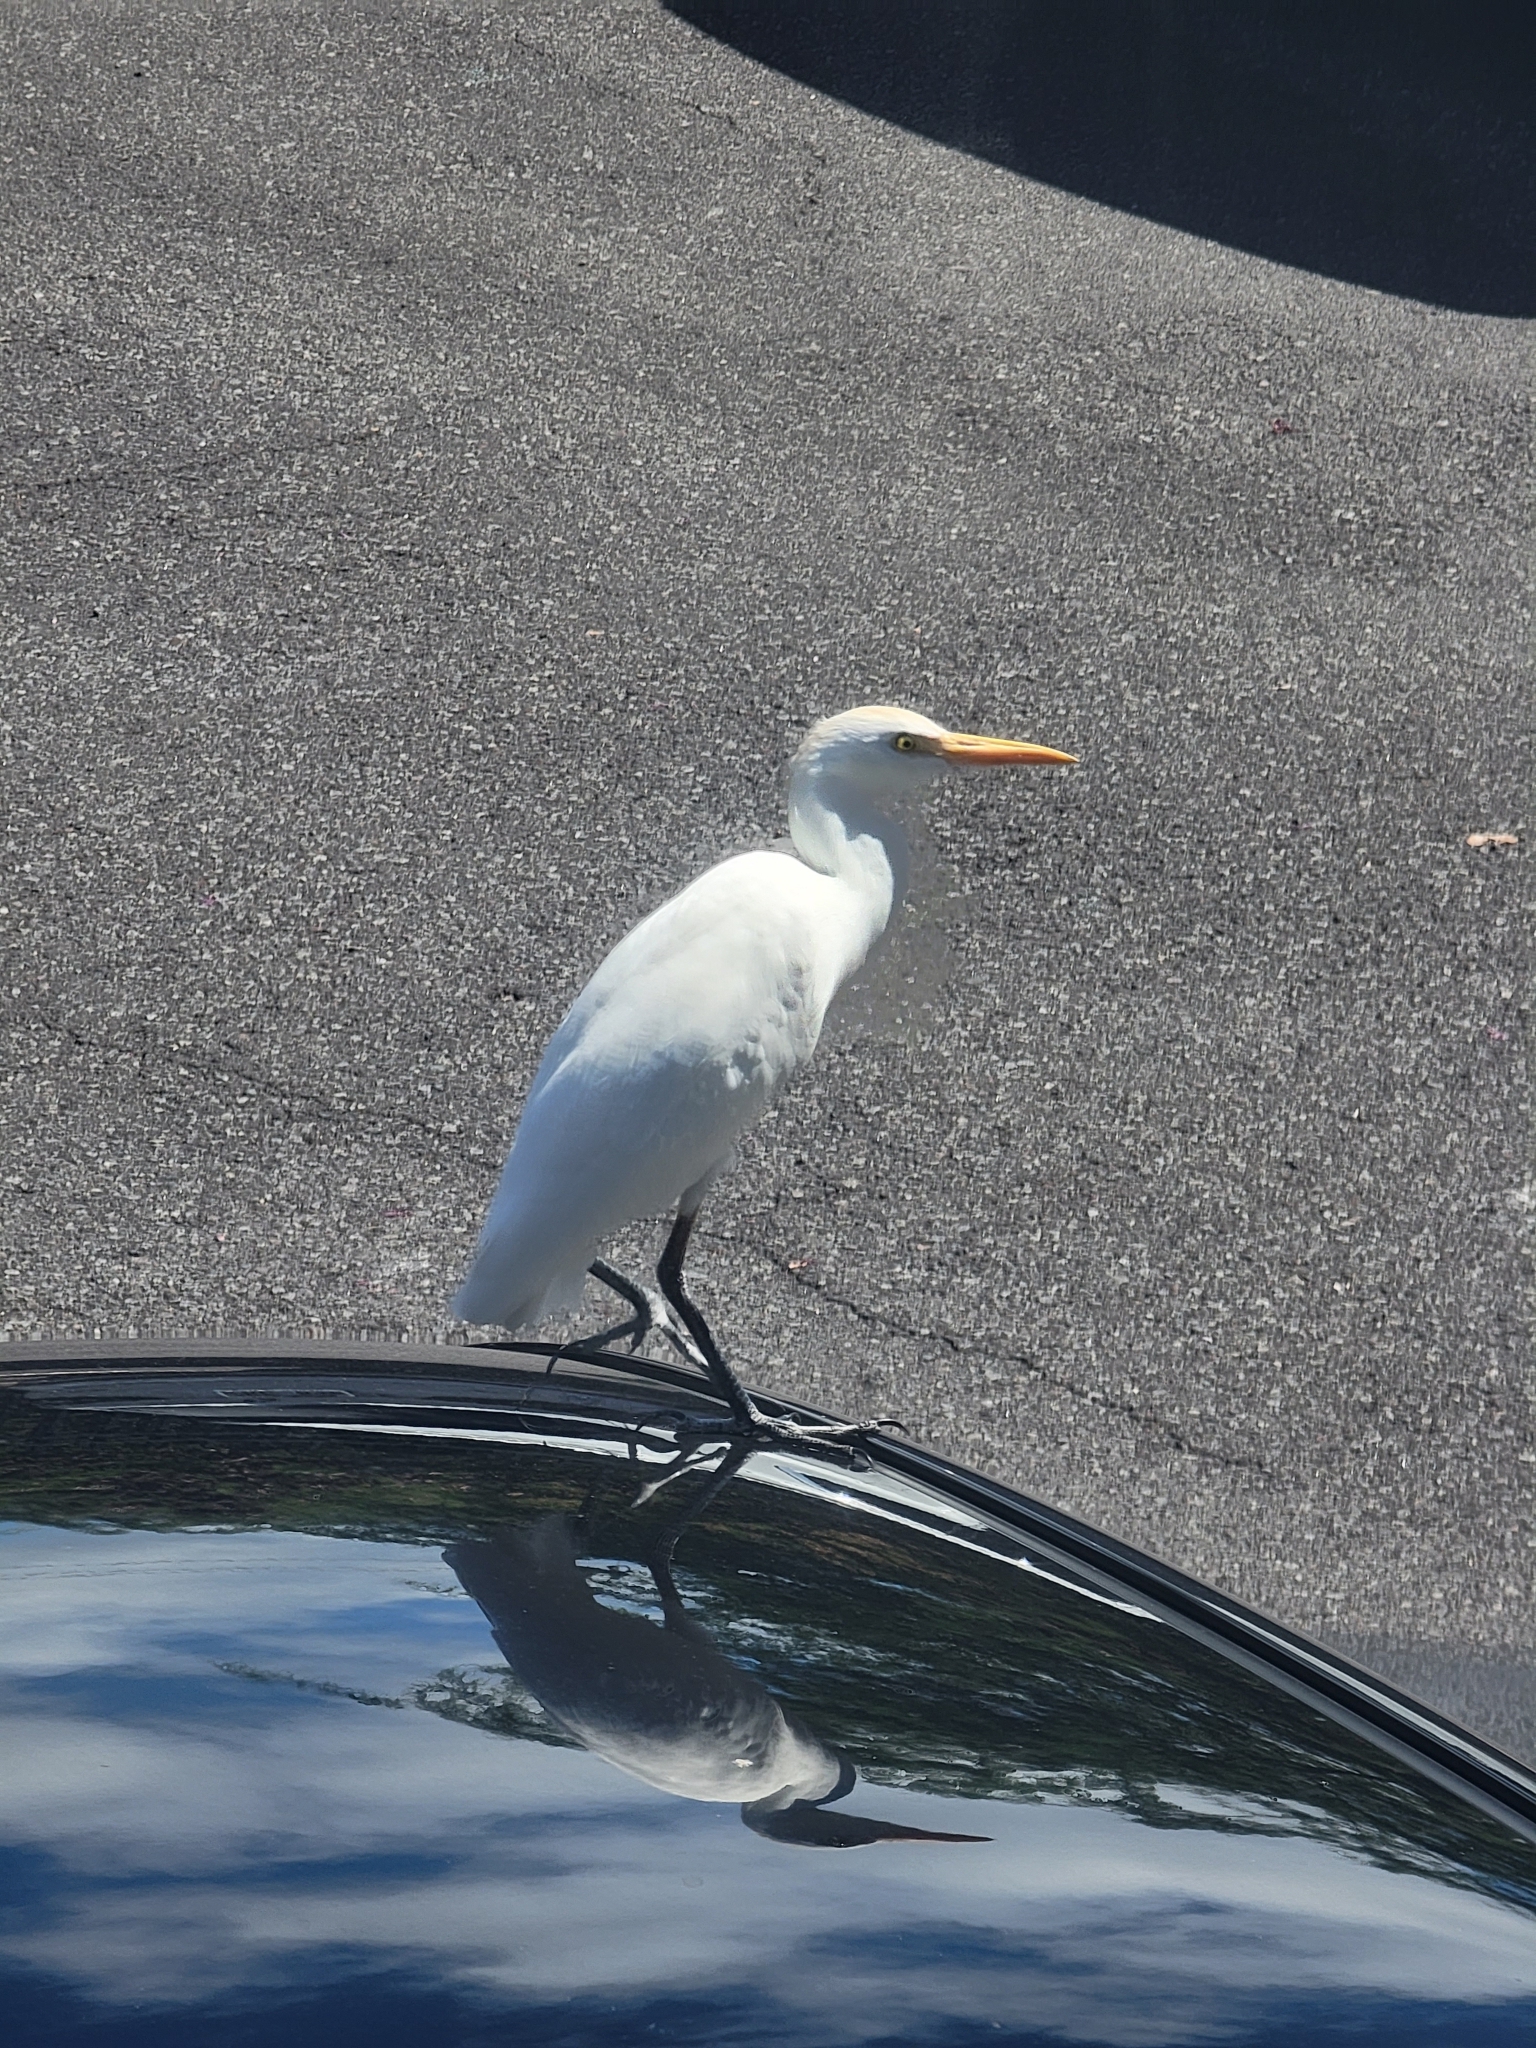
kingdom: Animalia
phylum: Chordata
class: Aves
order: Pelecaniformes
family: Ardeidae
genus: Bubulcus
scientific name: Bubulcus ibis
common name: Cattle egret
